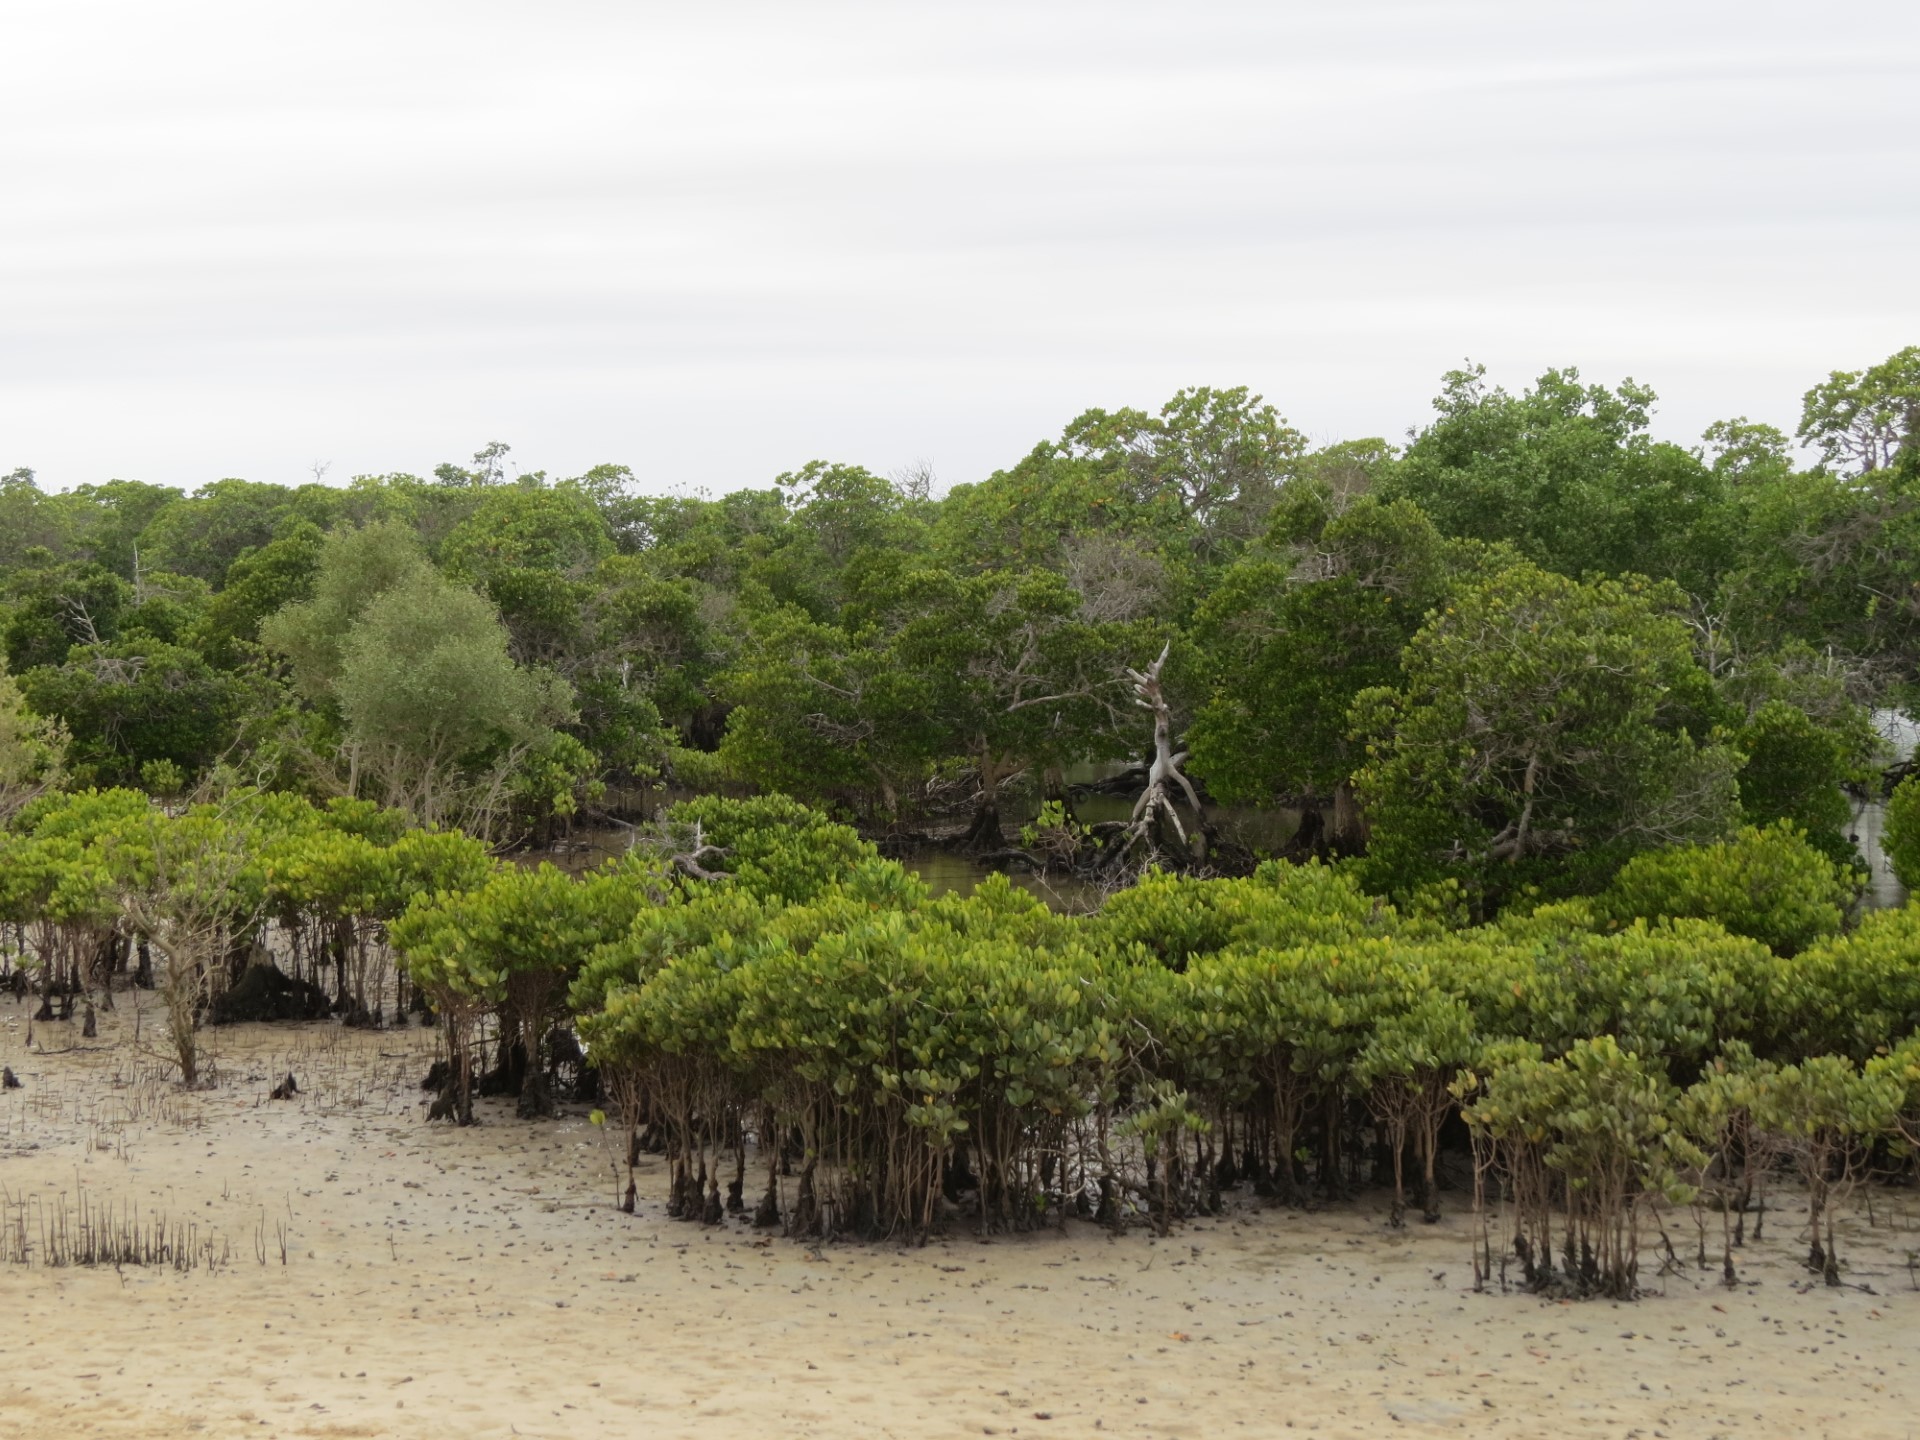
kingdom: Plantae
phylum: Tracheophyta
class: Magnoliopsida
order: Myrtales
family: Combretaceae
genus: Lumnitzera
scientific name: Lumnitzera racemosa
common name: White-flowered black mangrove
